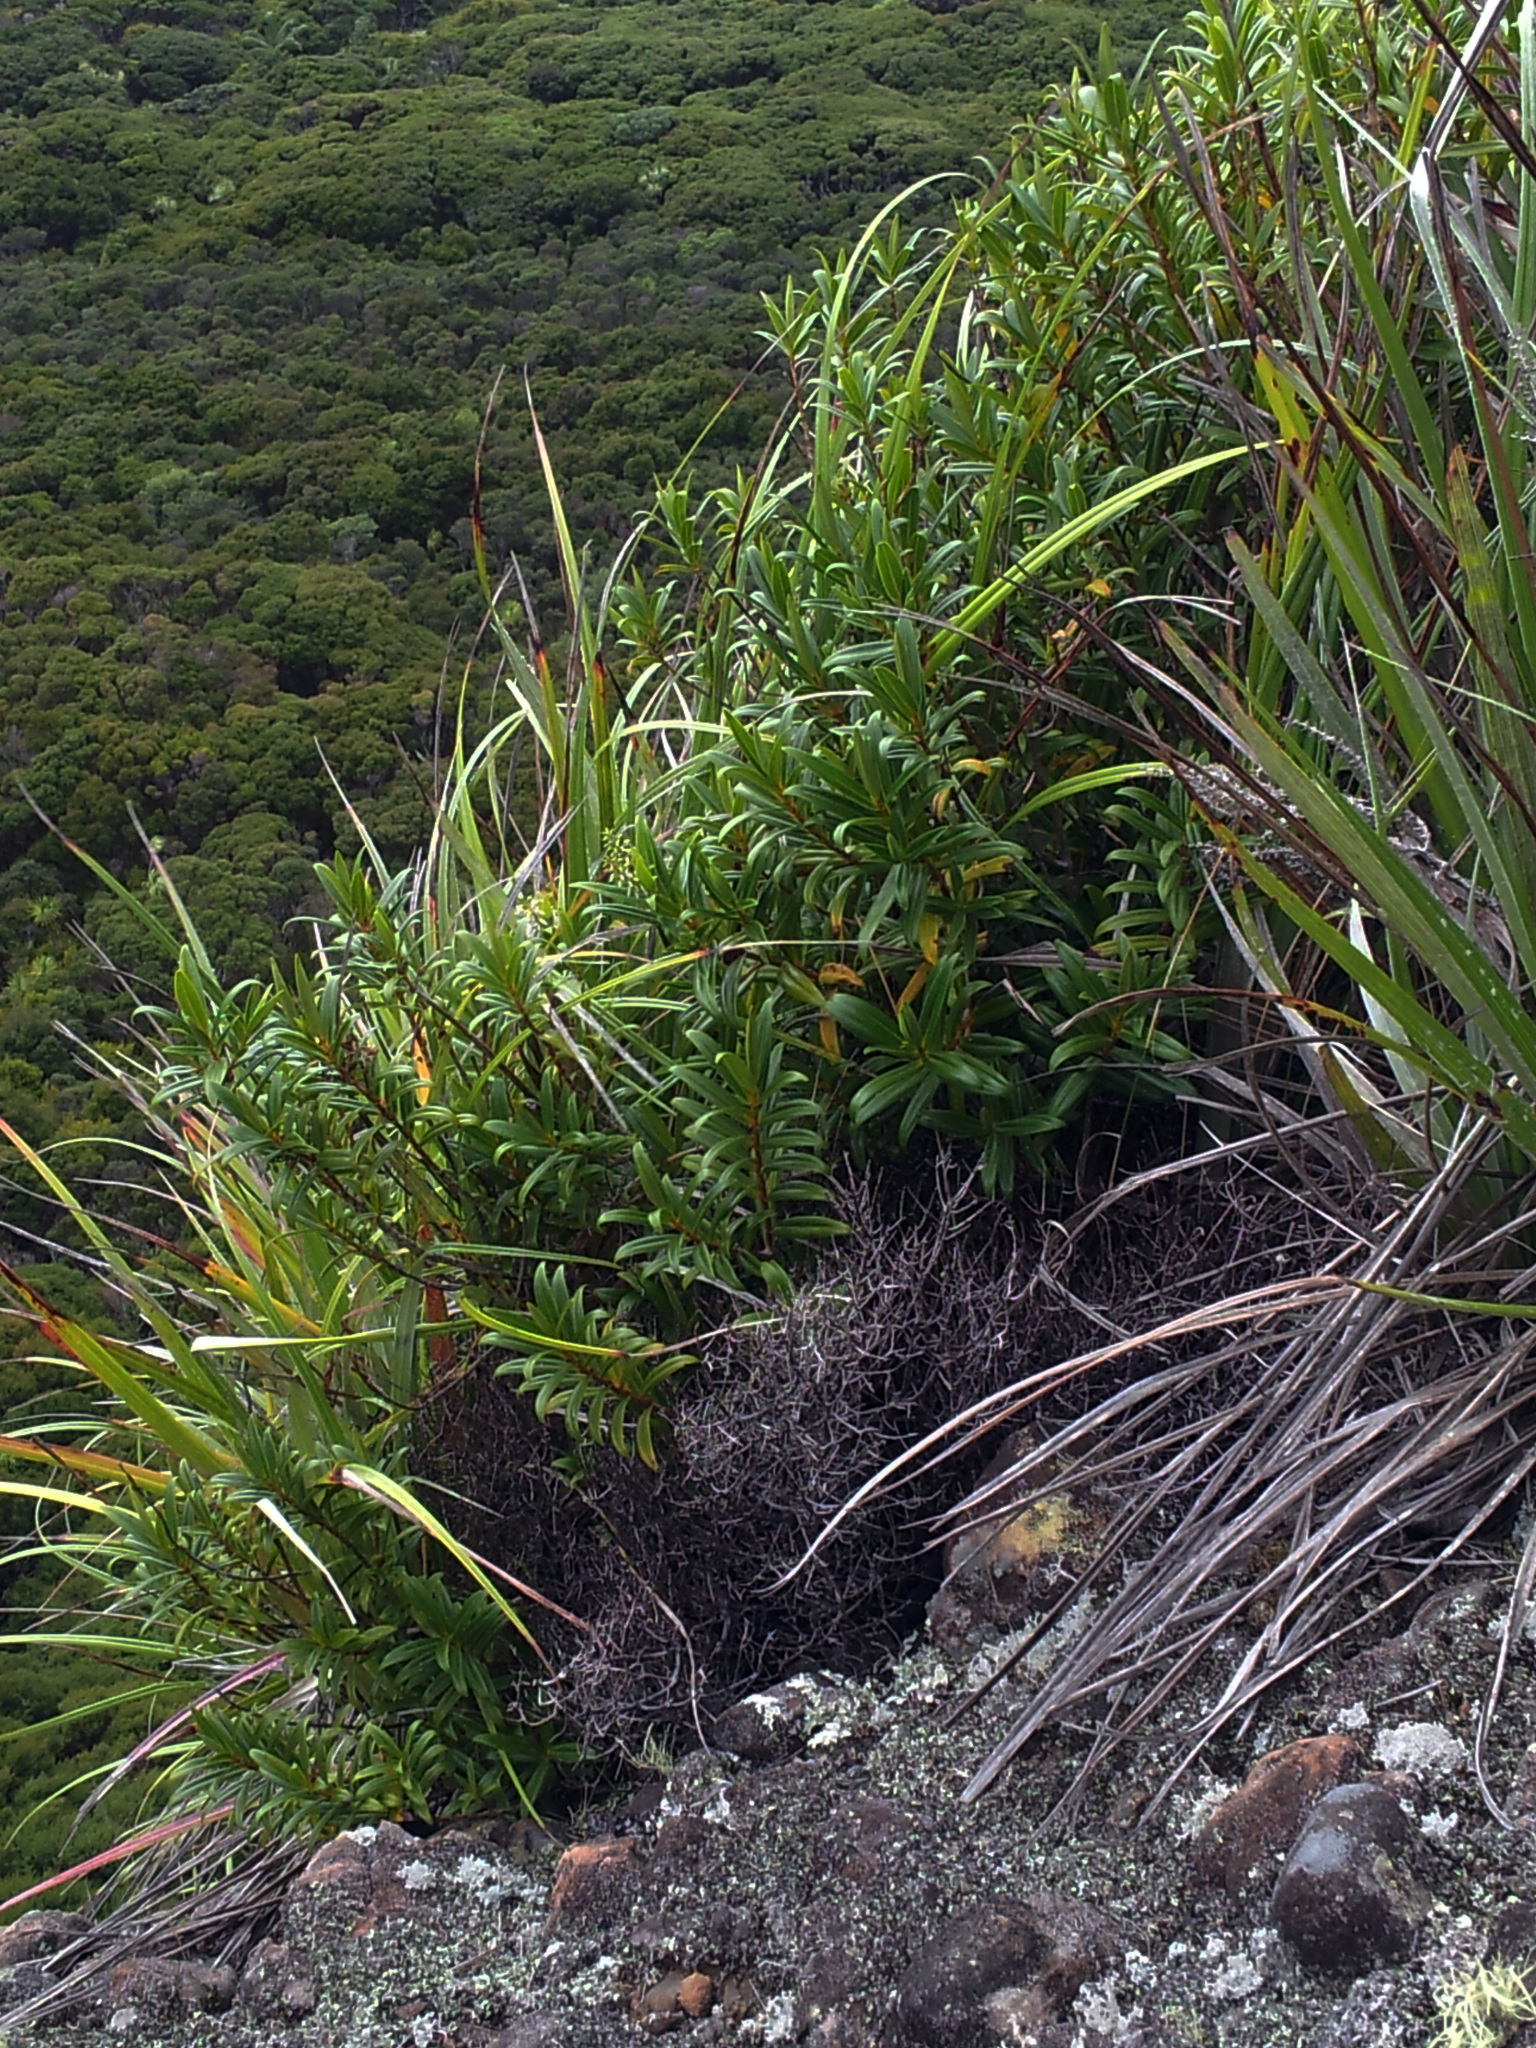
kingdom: Plantae
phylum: Tracheophyta
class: Magnoliopsida
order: Lamiales
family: Plantaginaceae
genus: Veronica
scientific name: Veronica adamsii
